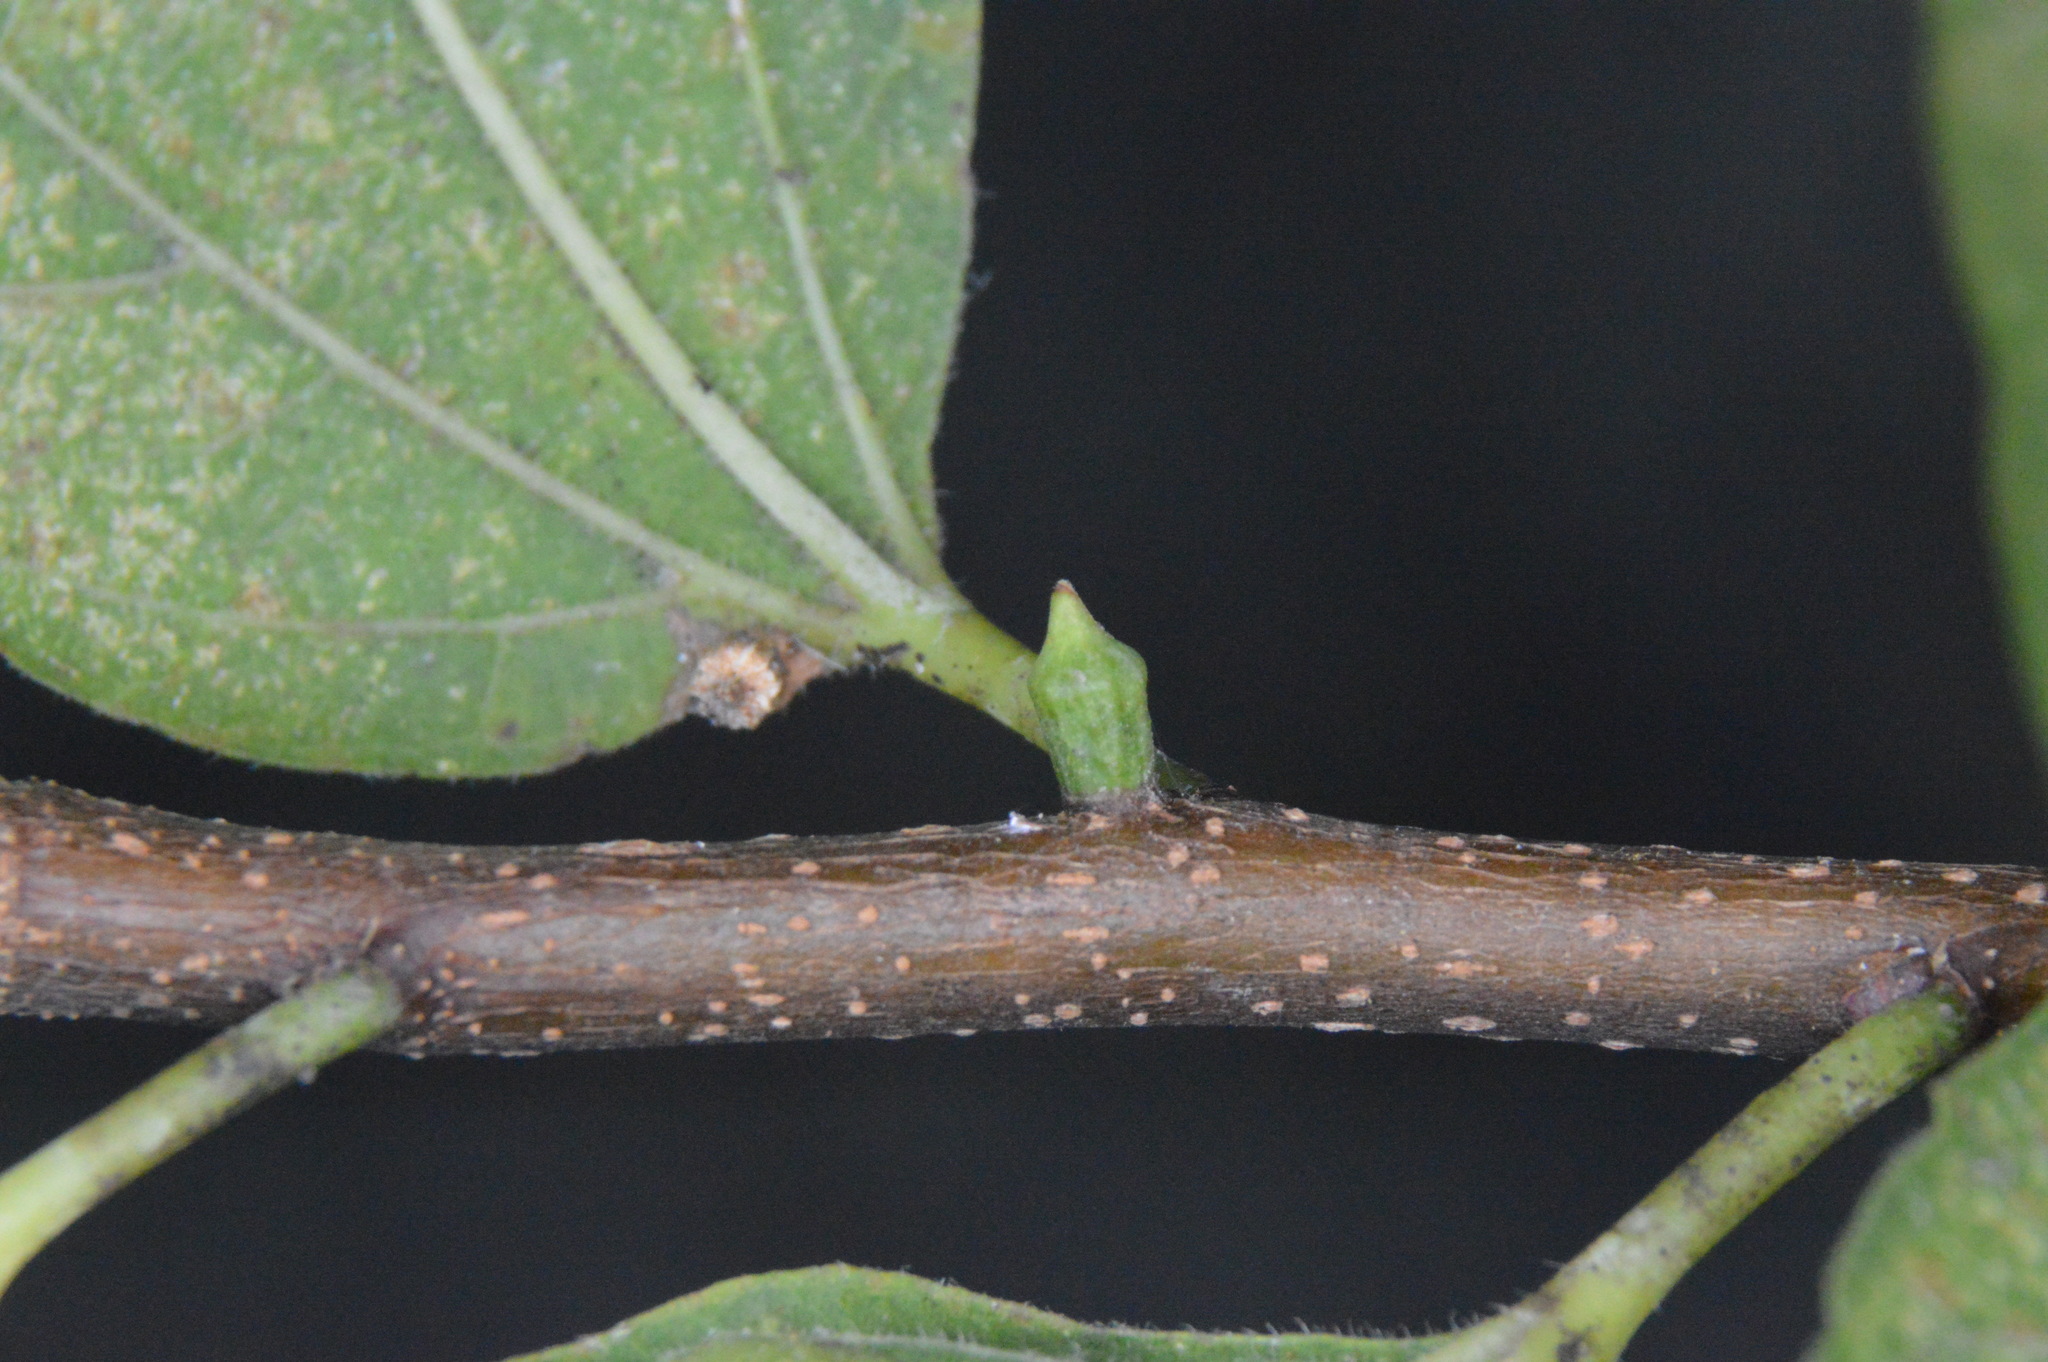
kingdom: Animalia
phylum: Arthropoda
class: Insecta
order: Diptera
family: Cecidomyiidae
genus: Celticecis
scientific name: Celticecis ramicola
